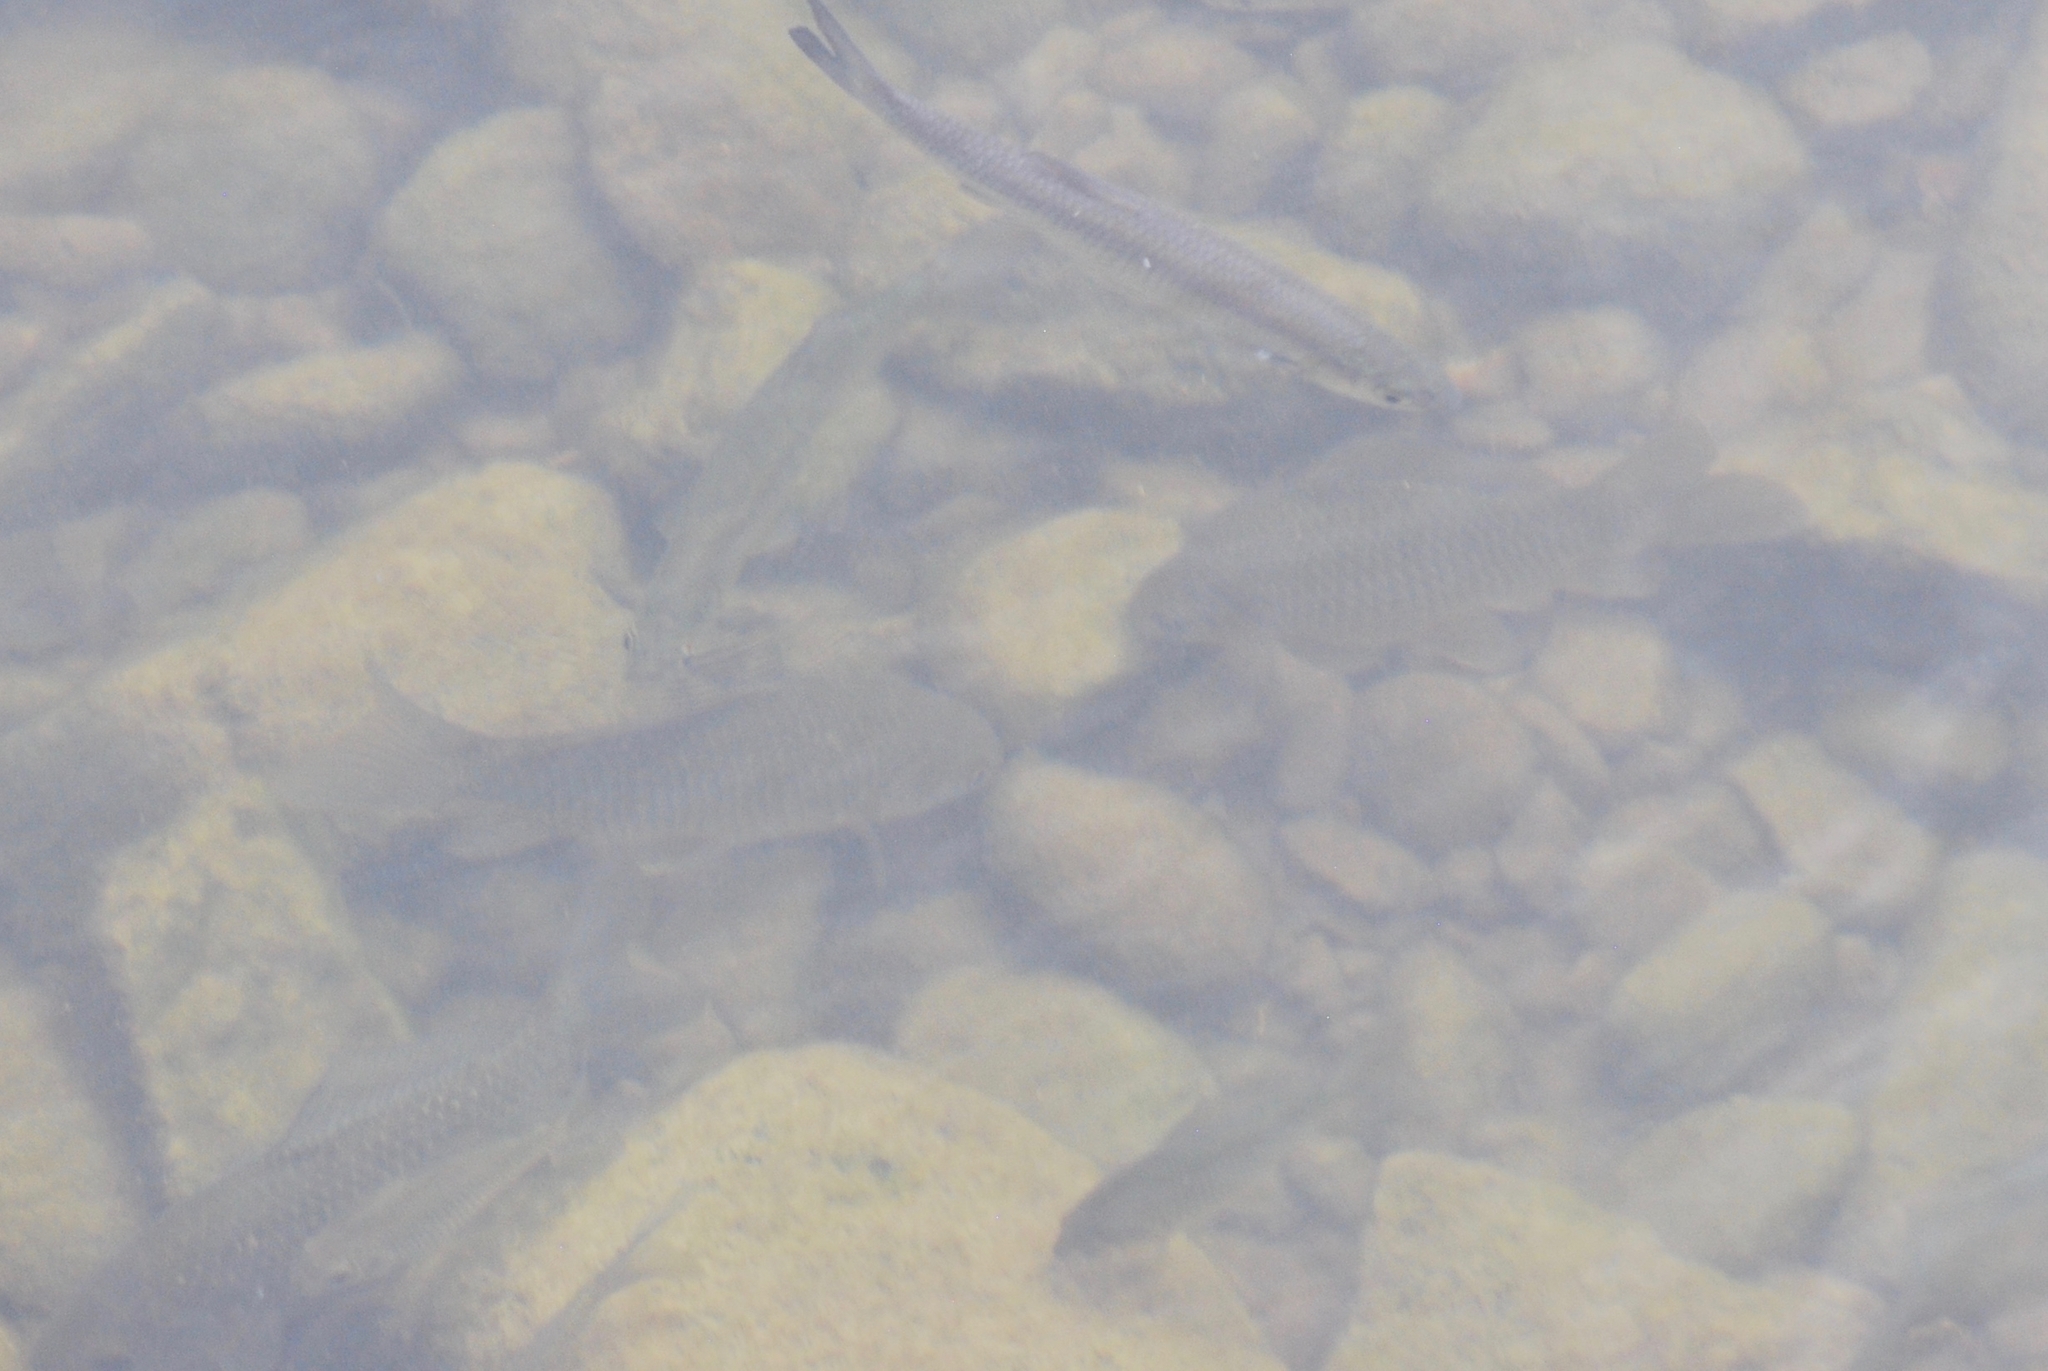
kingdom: Animalia
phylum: Chordata
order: Cypriniformes
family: Cyprinidae
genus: Carassius
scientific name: Carassius auratus
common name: Goldfish
